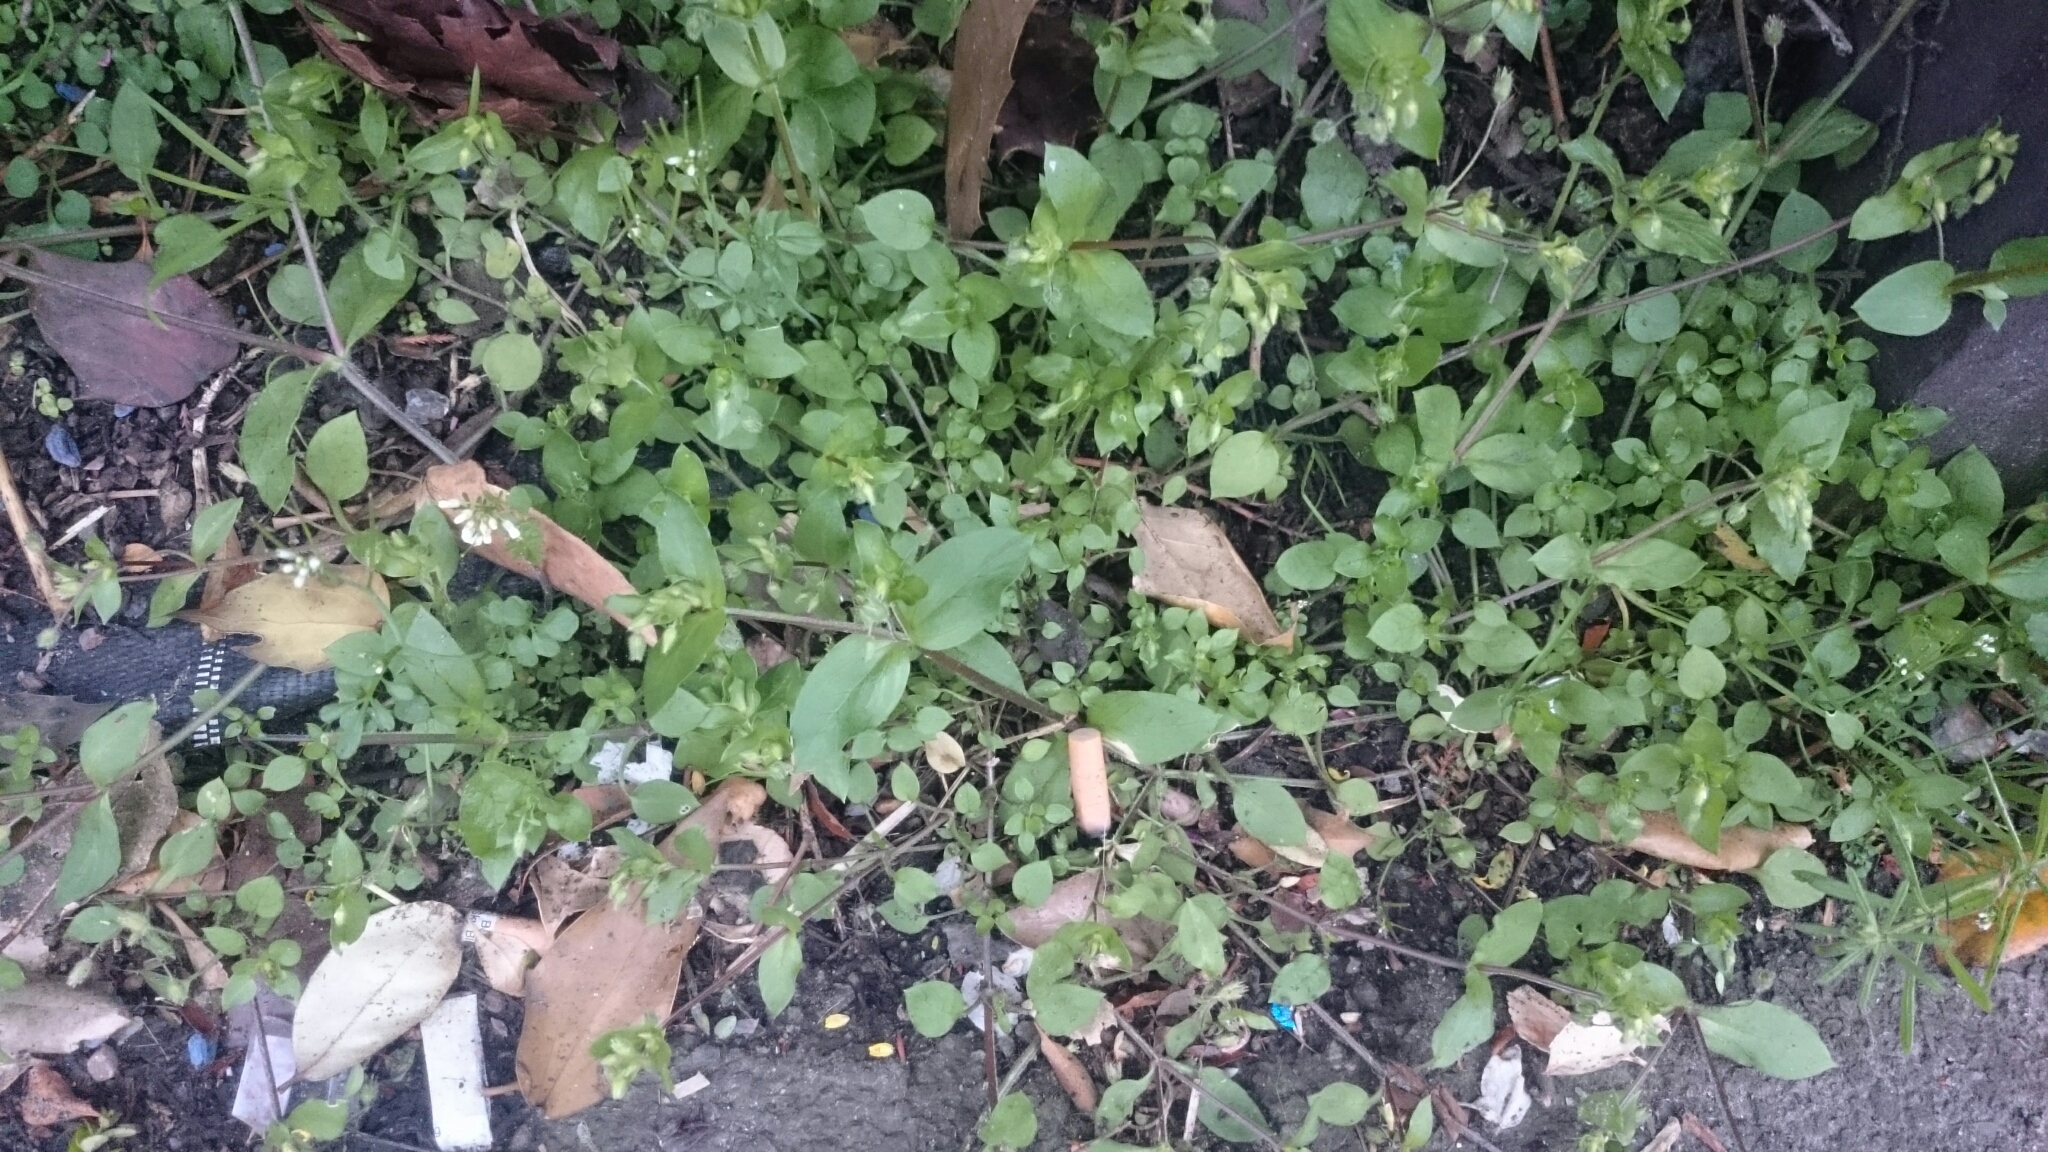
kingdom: Plantae
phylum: Tracheophyta
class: Magnoliopsida
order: Caryophyllales
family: Caryophyllaceae
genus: Stellaria
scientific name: Stellaria media
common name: Common chickweed
